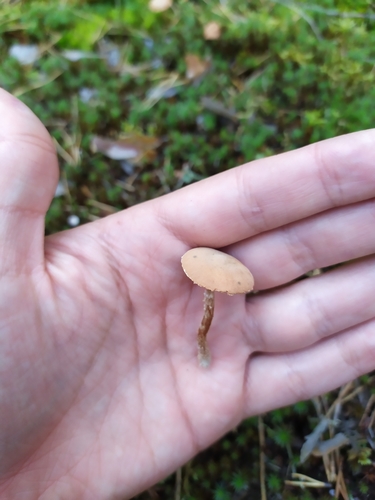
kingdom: Fungi
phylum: Basidiomycota
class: Agaricomycetes
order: Agaricales
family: Tricholomataceae
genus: Cystoderma
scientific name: Cystoderma
